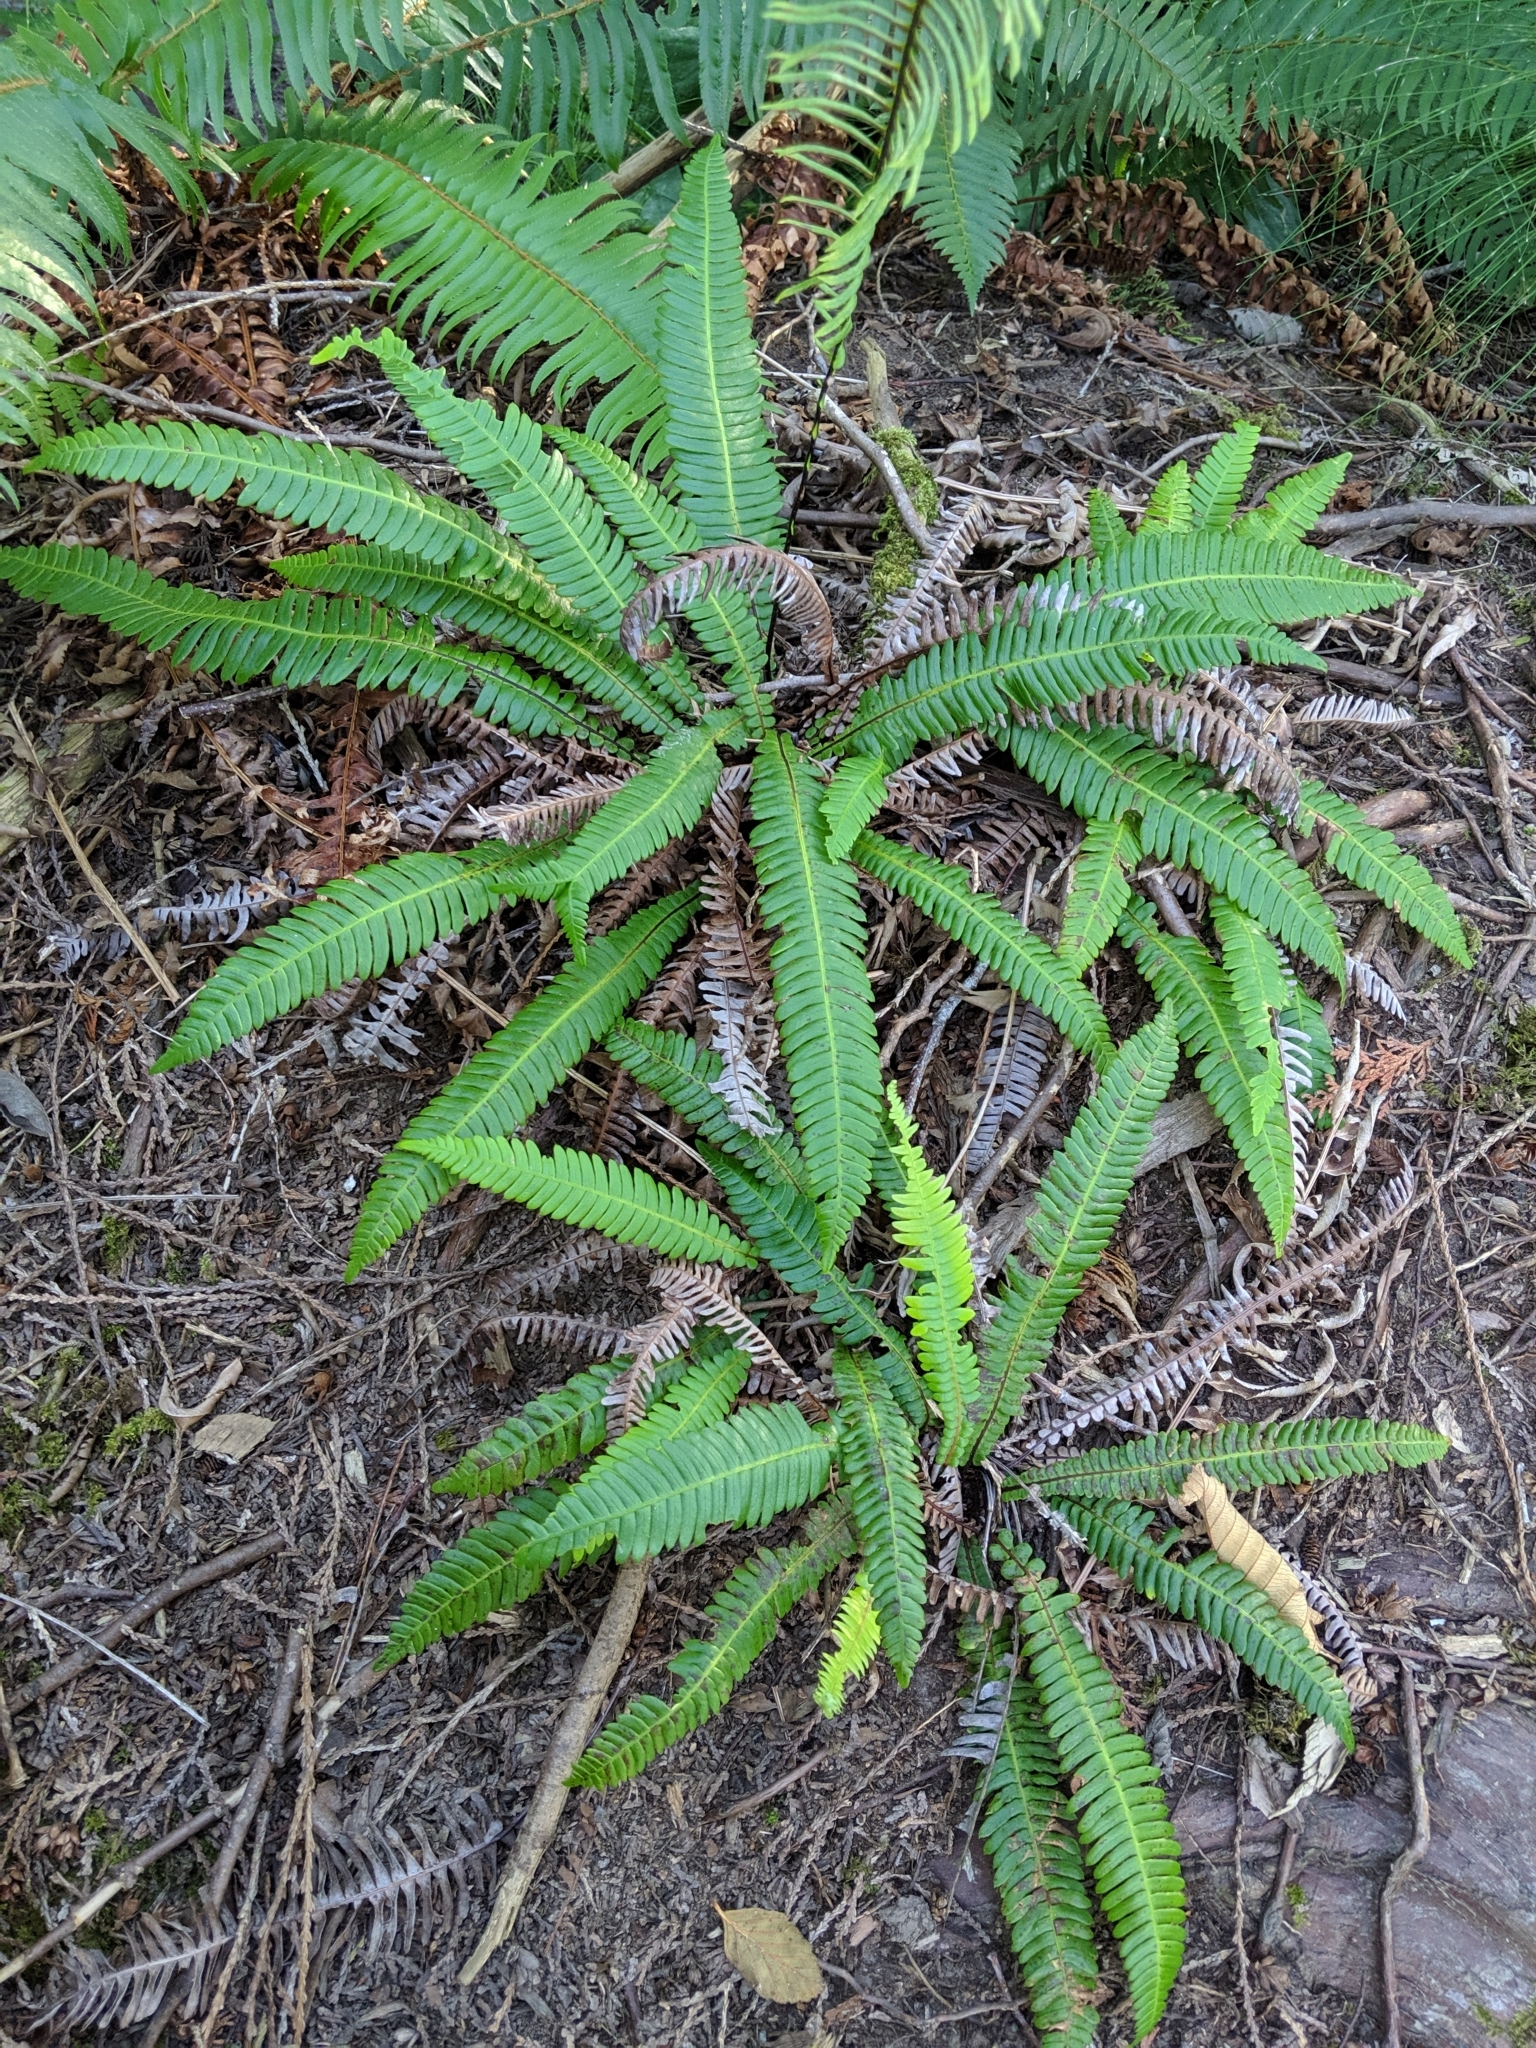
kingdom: Plantae
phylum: Tracheophyta
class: Polypodiopsida
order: Polypodiales
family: Blechnaceae
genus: Struthiopteris
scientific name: Struthiopteris spicant
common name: Deer fern
